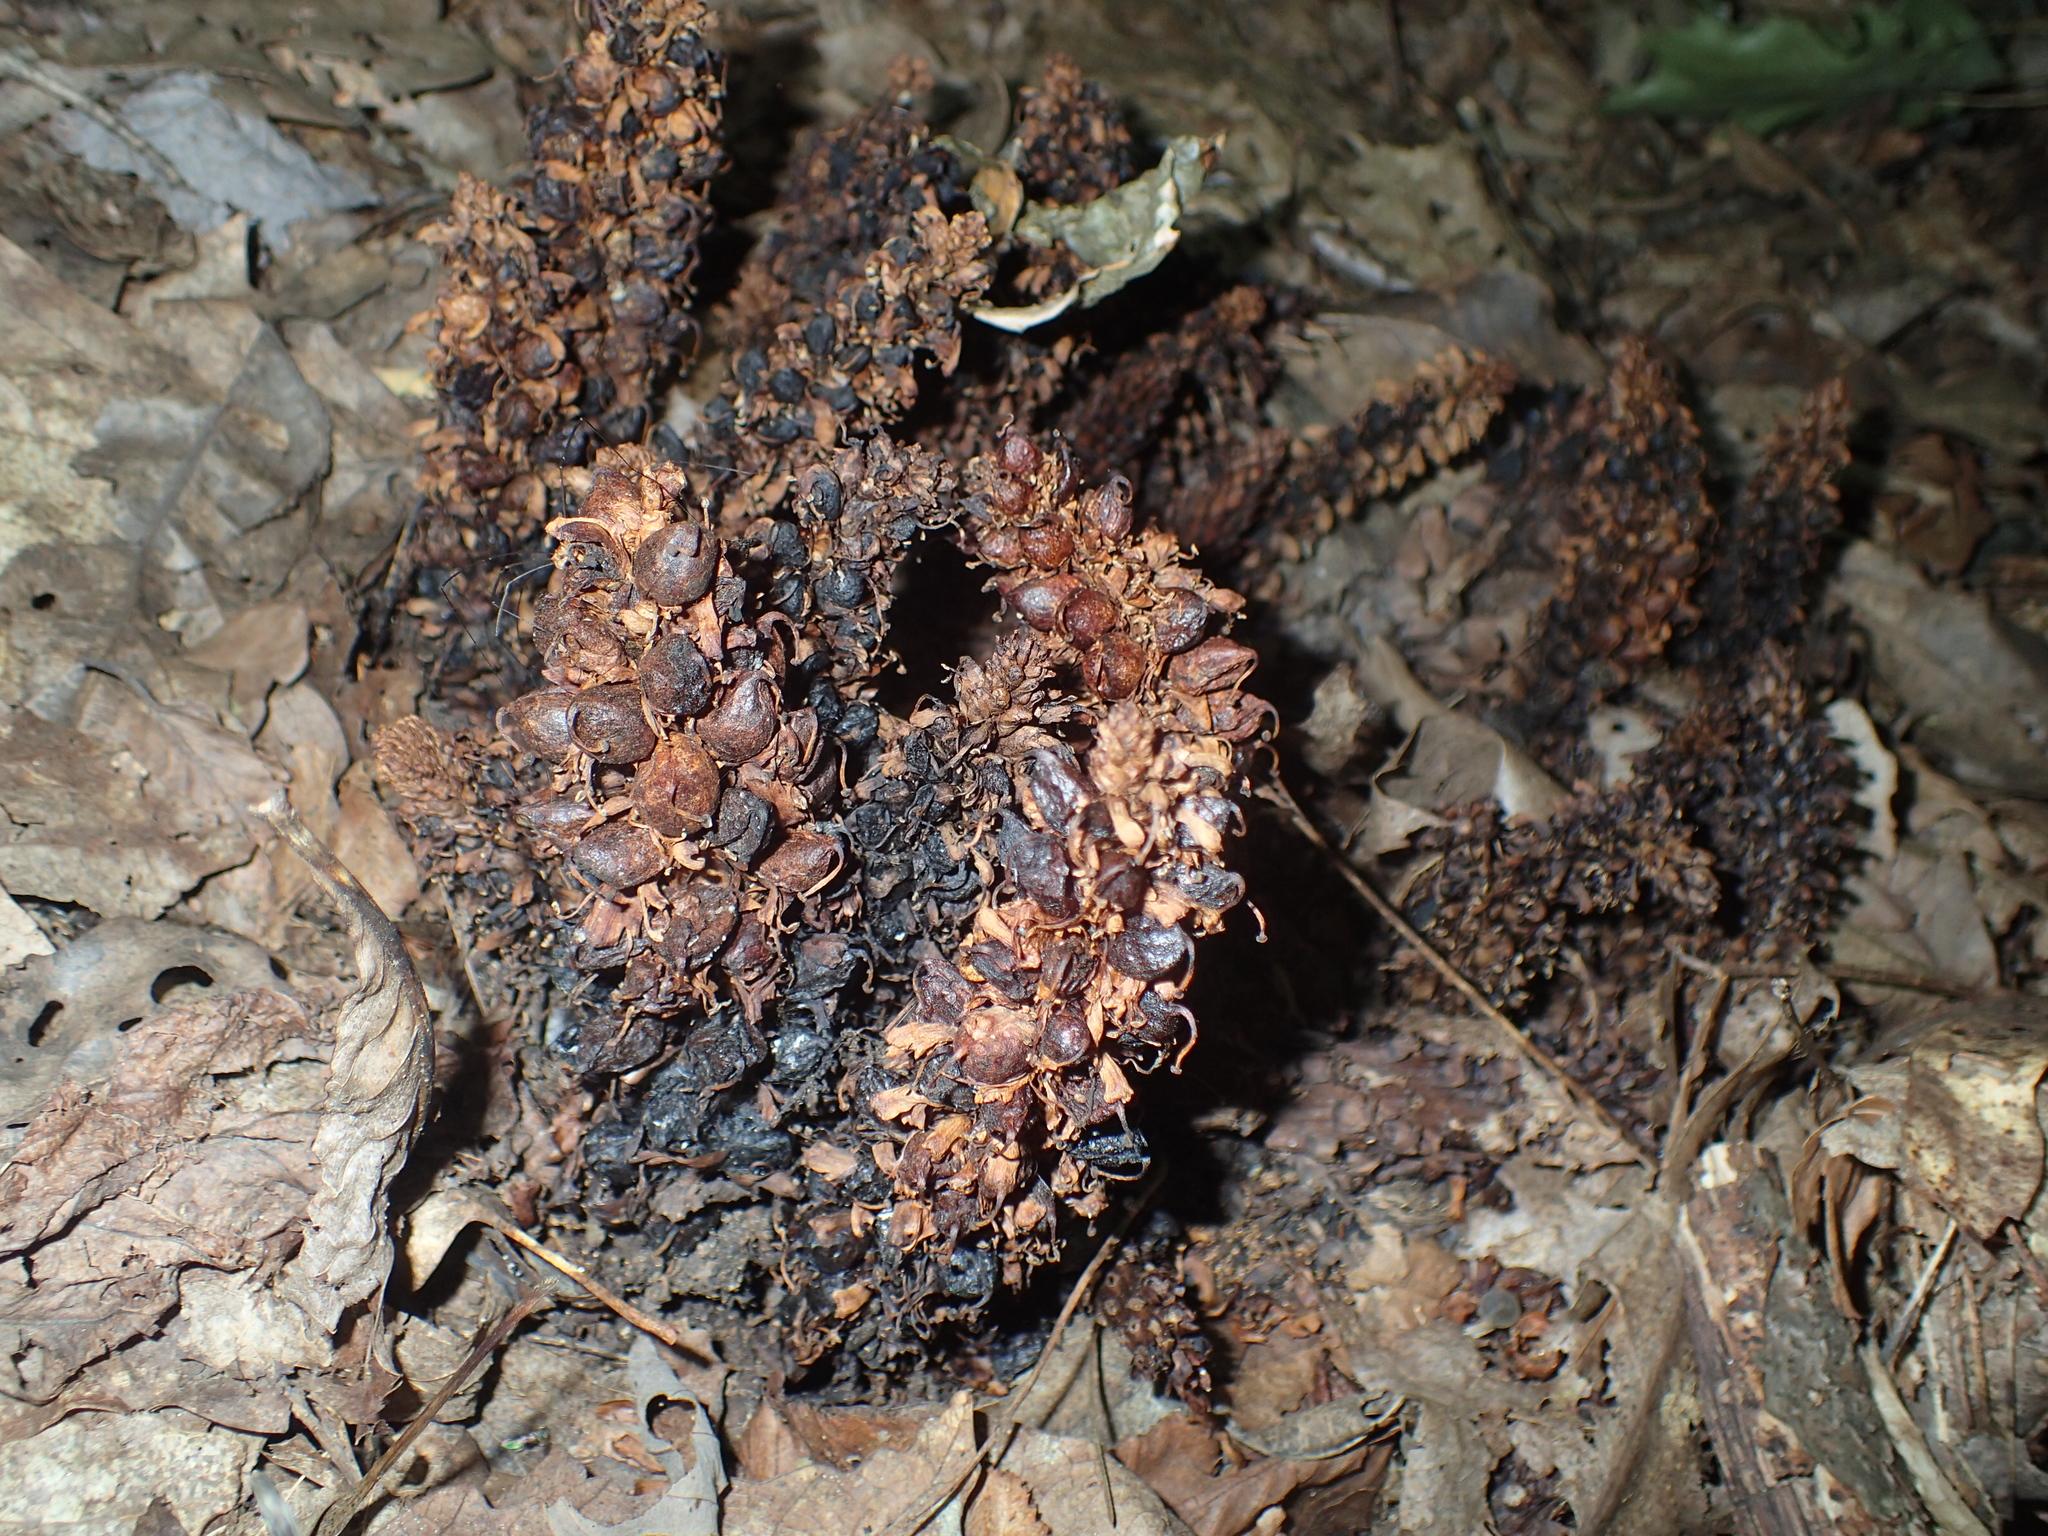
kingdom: Plantae
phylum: Tracheophyta
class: Magnoliopsida
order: Lamiales
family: Orobanchaceae
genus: Conopholis
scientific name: Conopholis americana
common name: American cancer-root
